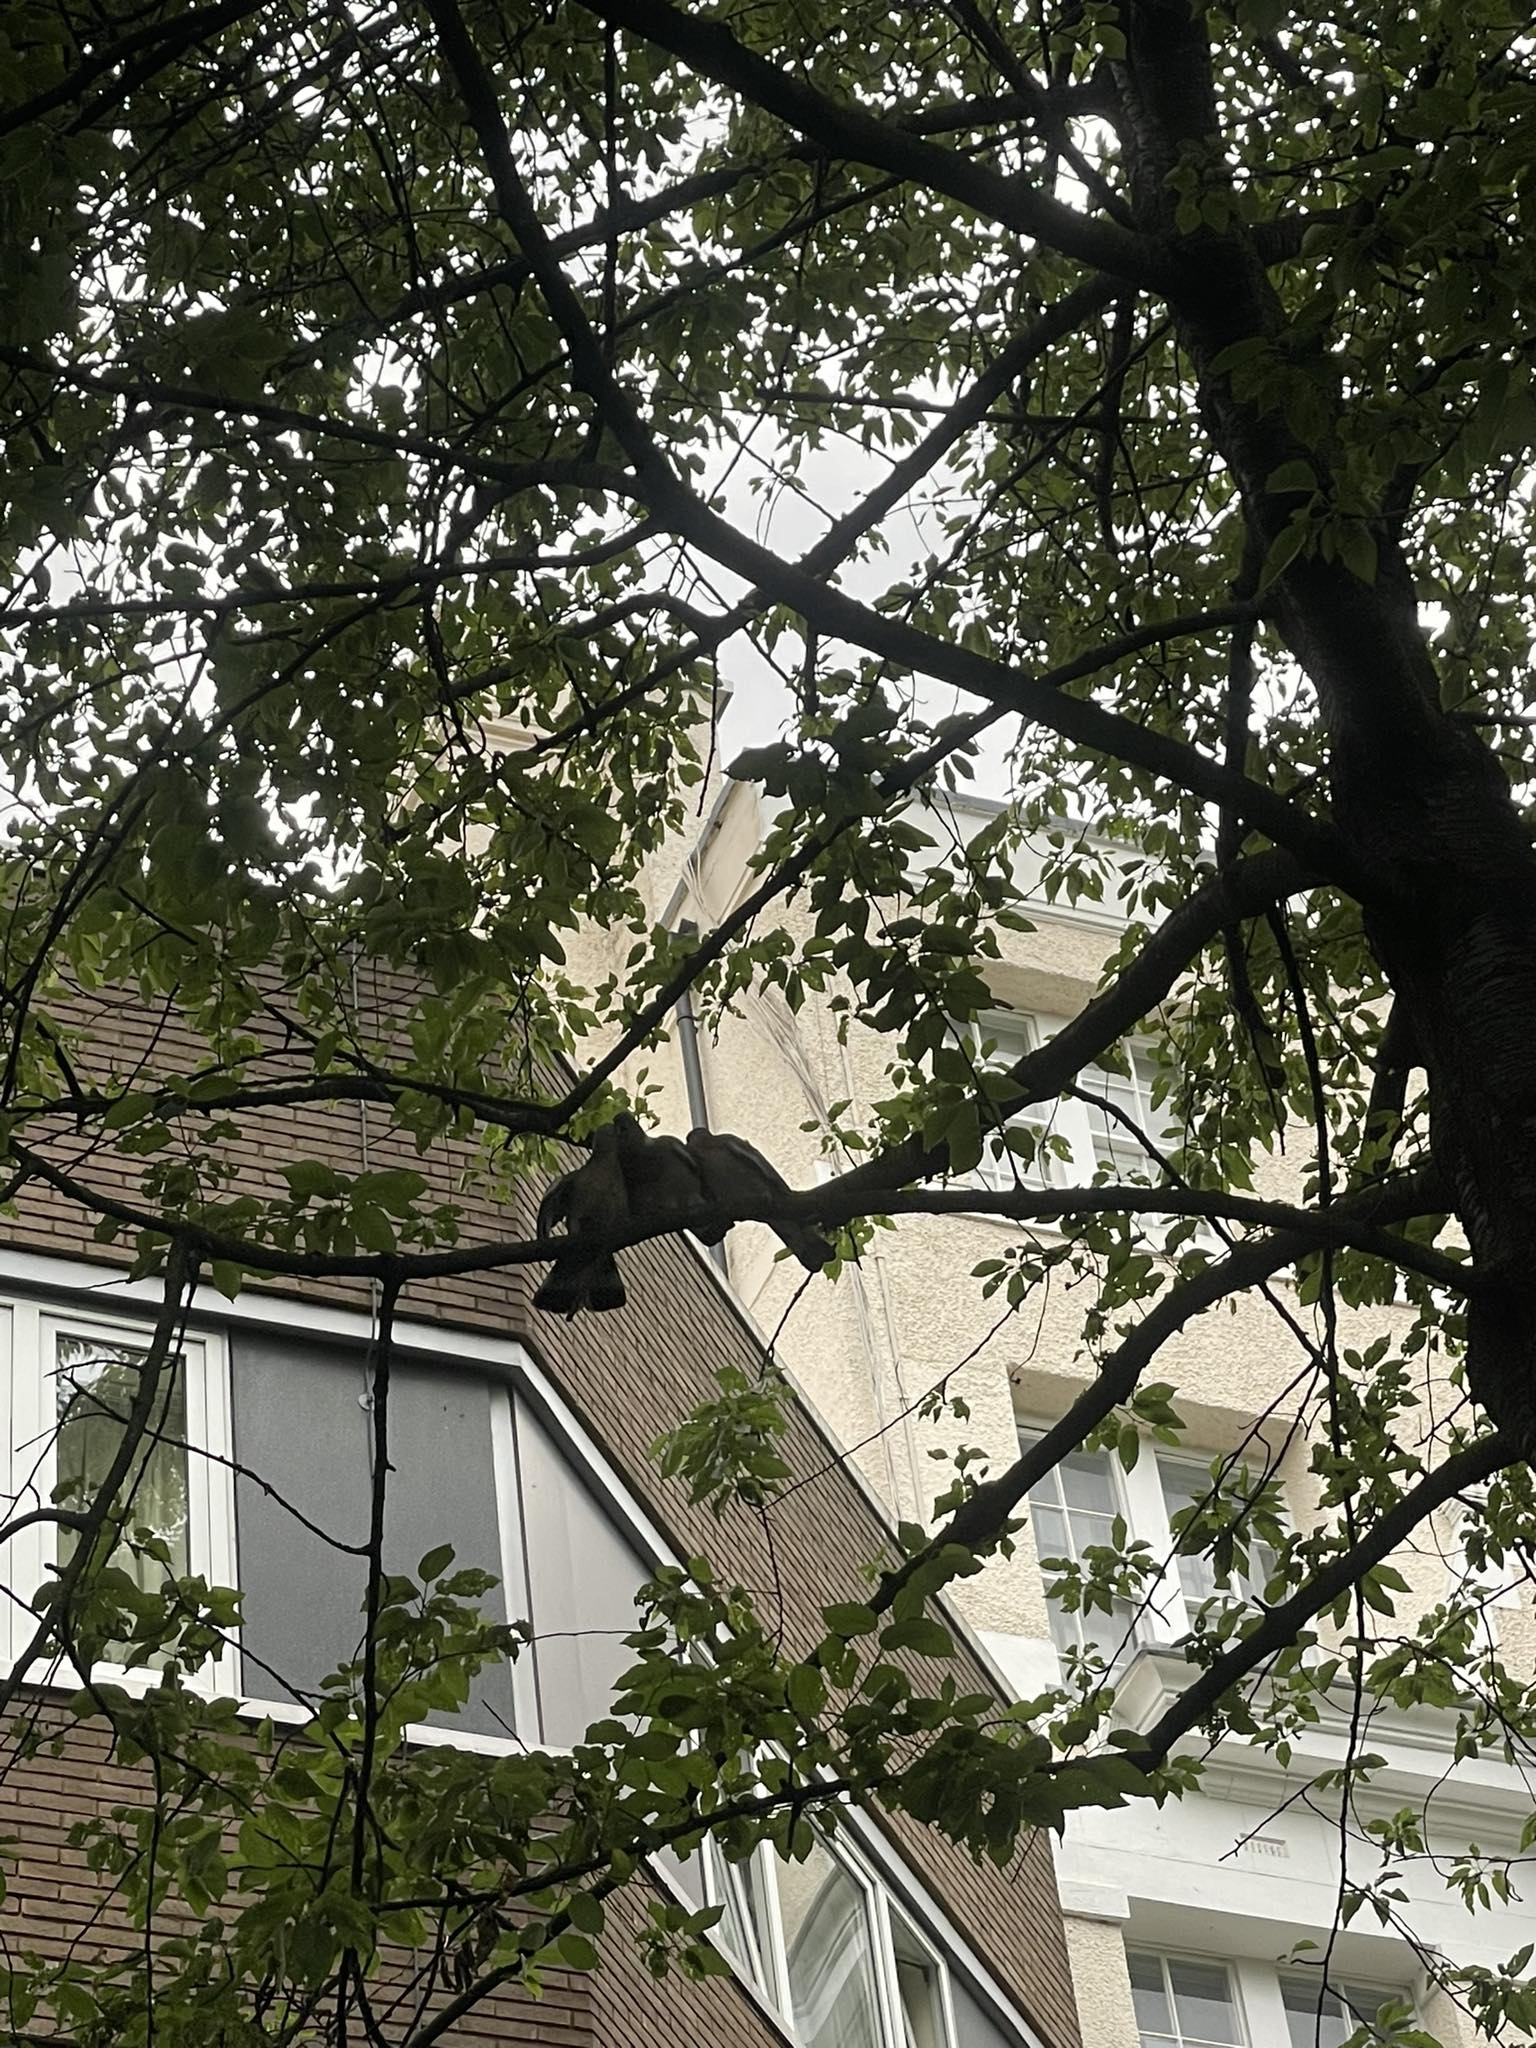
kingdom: Animalia
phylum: Chordata
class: Aves
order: Columbiformes
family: Columbidae
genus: Columba
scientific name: Columba palumbus
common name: Common wood pigeon
